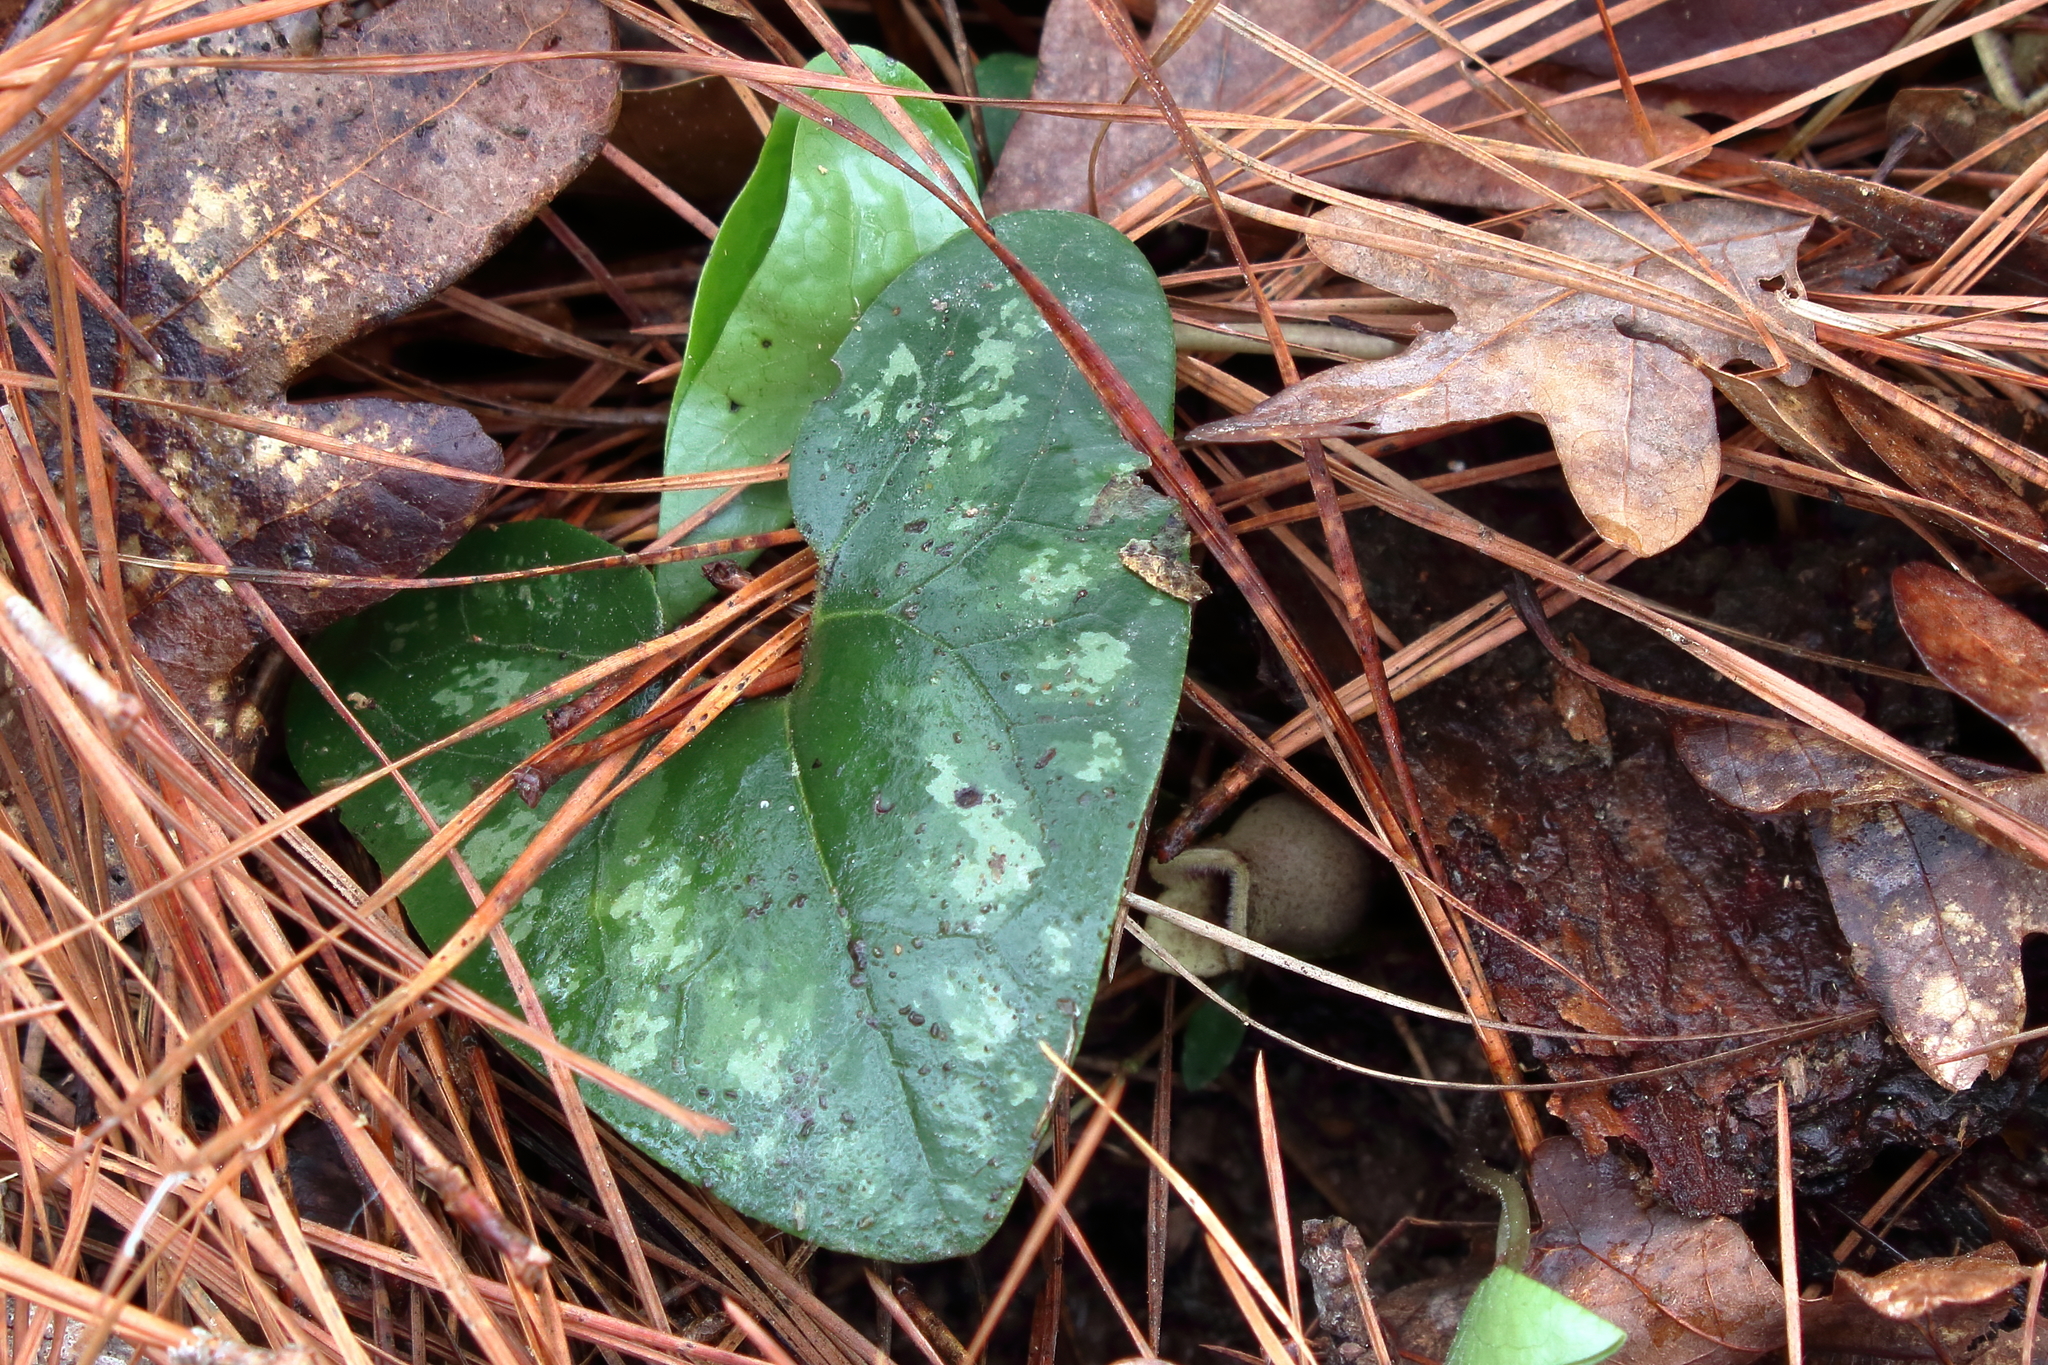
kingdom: Plantae
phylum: Tracheophyta
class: Magnoliopsida
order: Piperales
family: Aristolochiaceae
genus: Hexastylis
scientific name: Hexastylis arifolia
